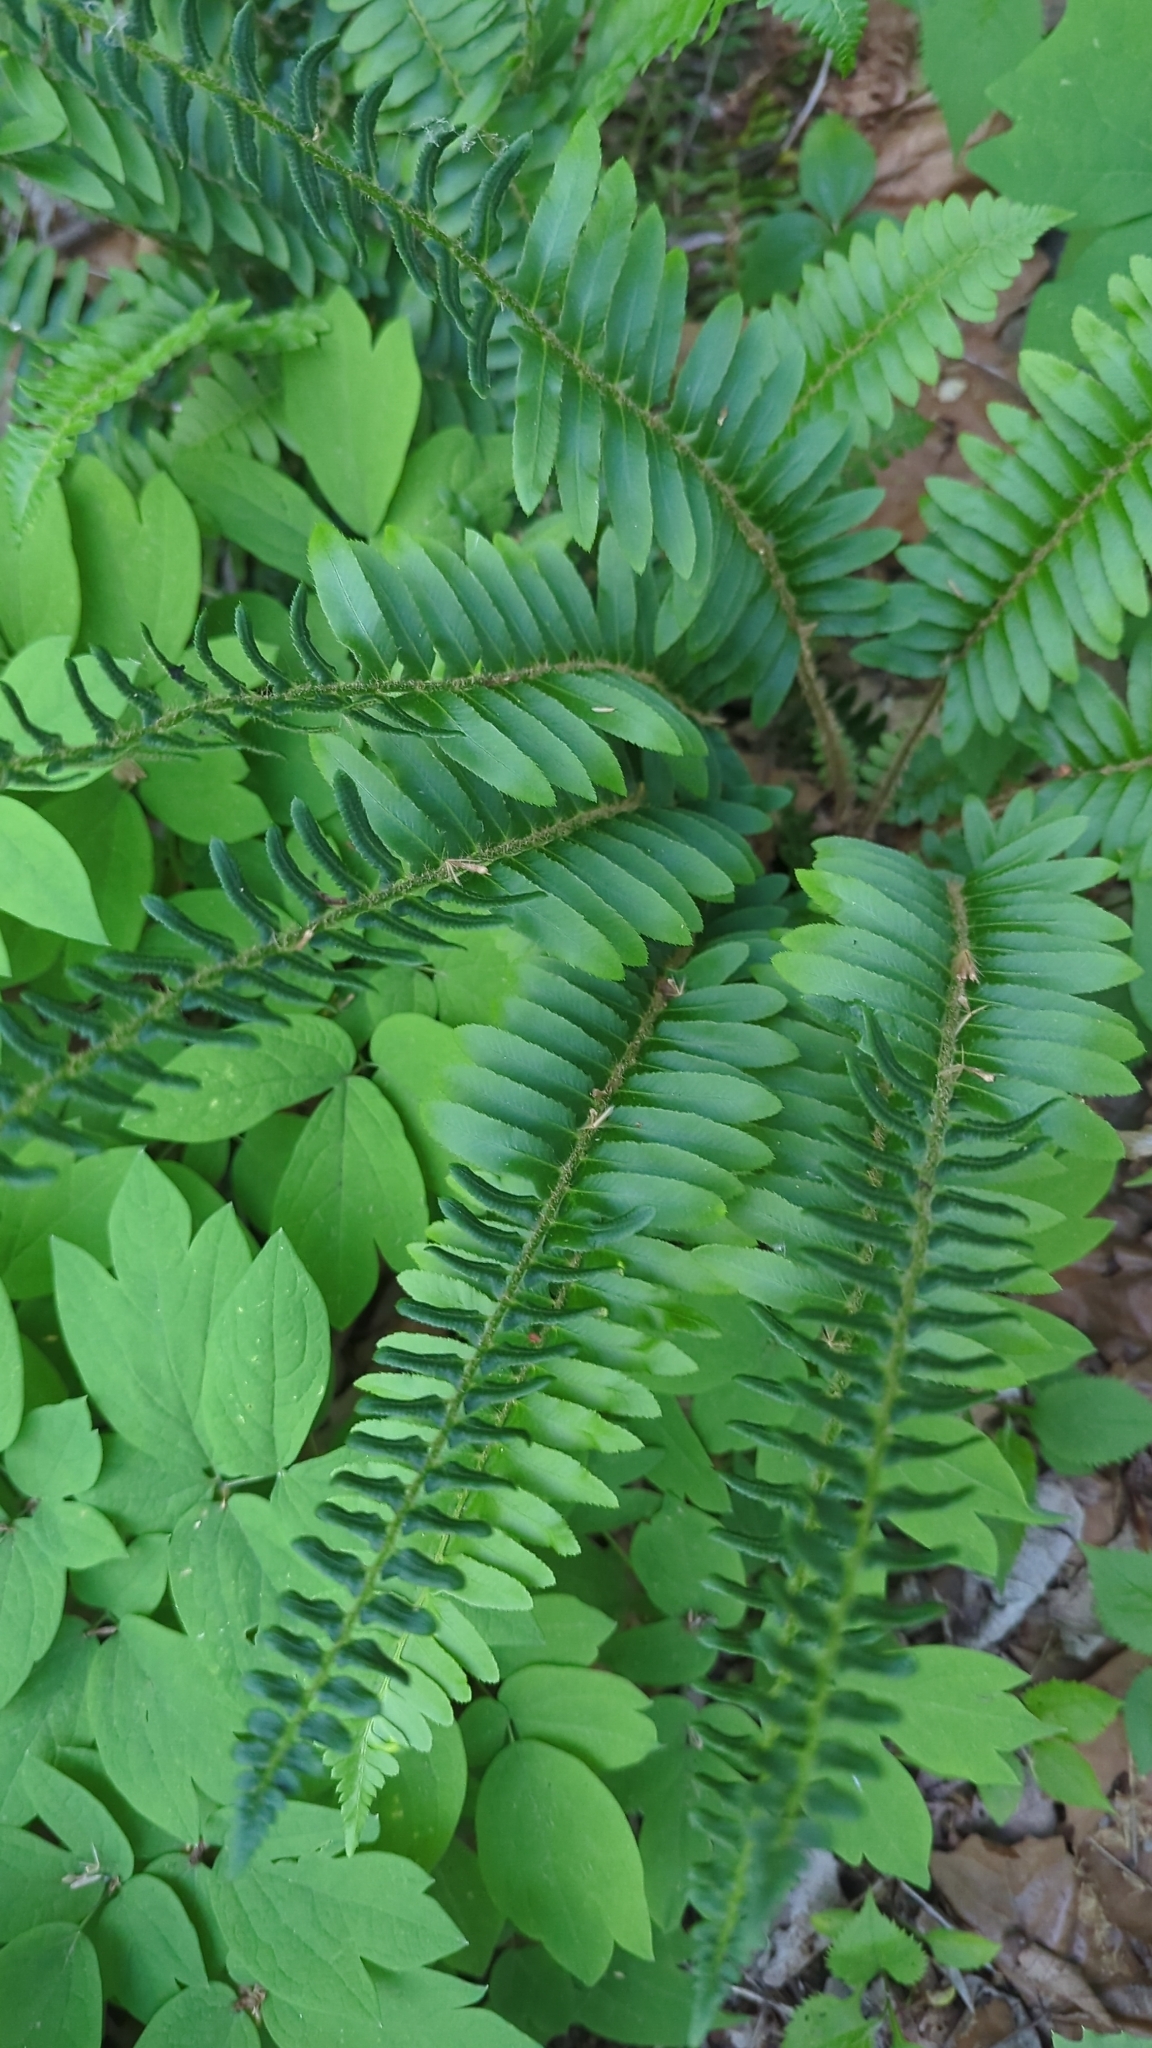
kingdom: Plantae
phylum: Tracheophyta
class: Polypodiopsida
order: Polypodiales
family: Dryopteridaceae
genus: Polystichum
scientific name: Polystichum acrostichoides
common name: Christmas fern
